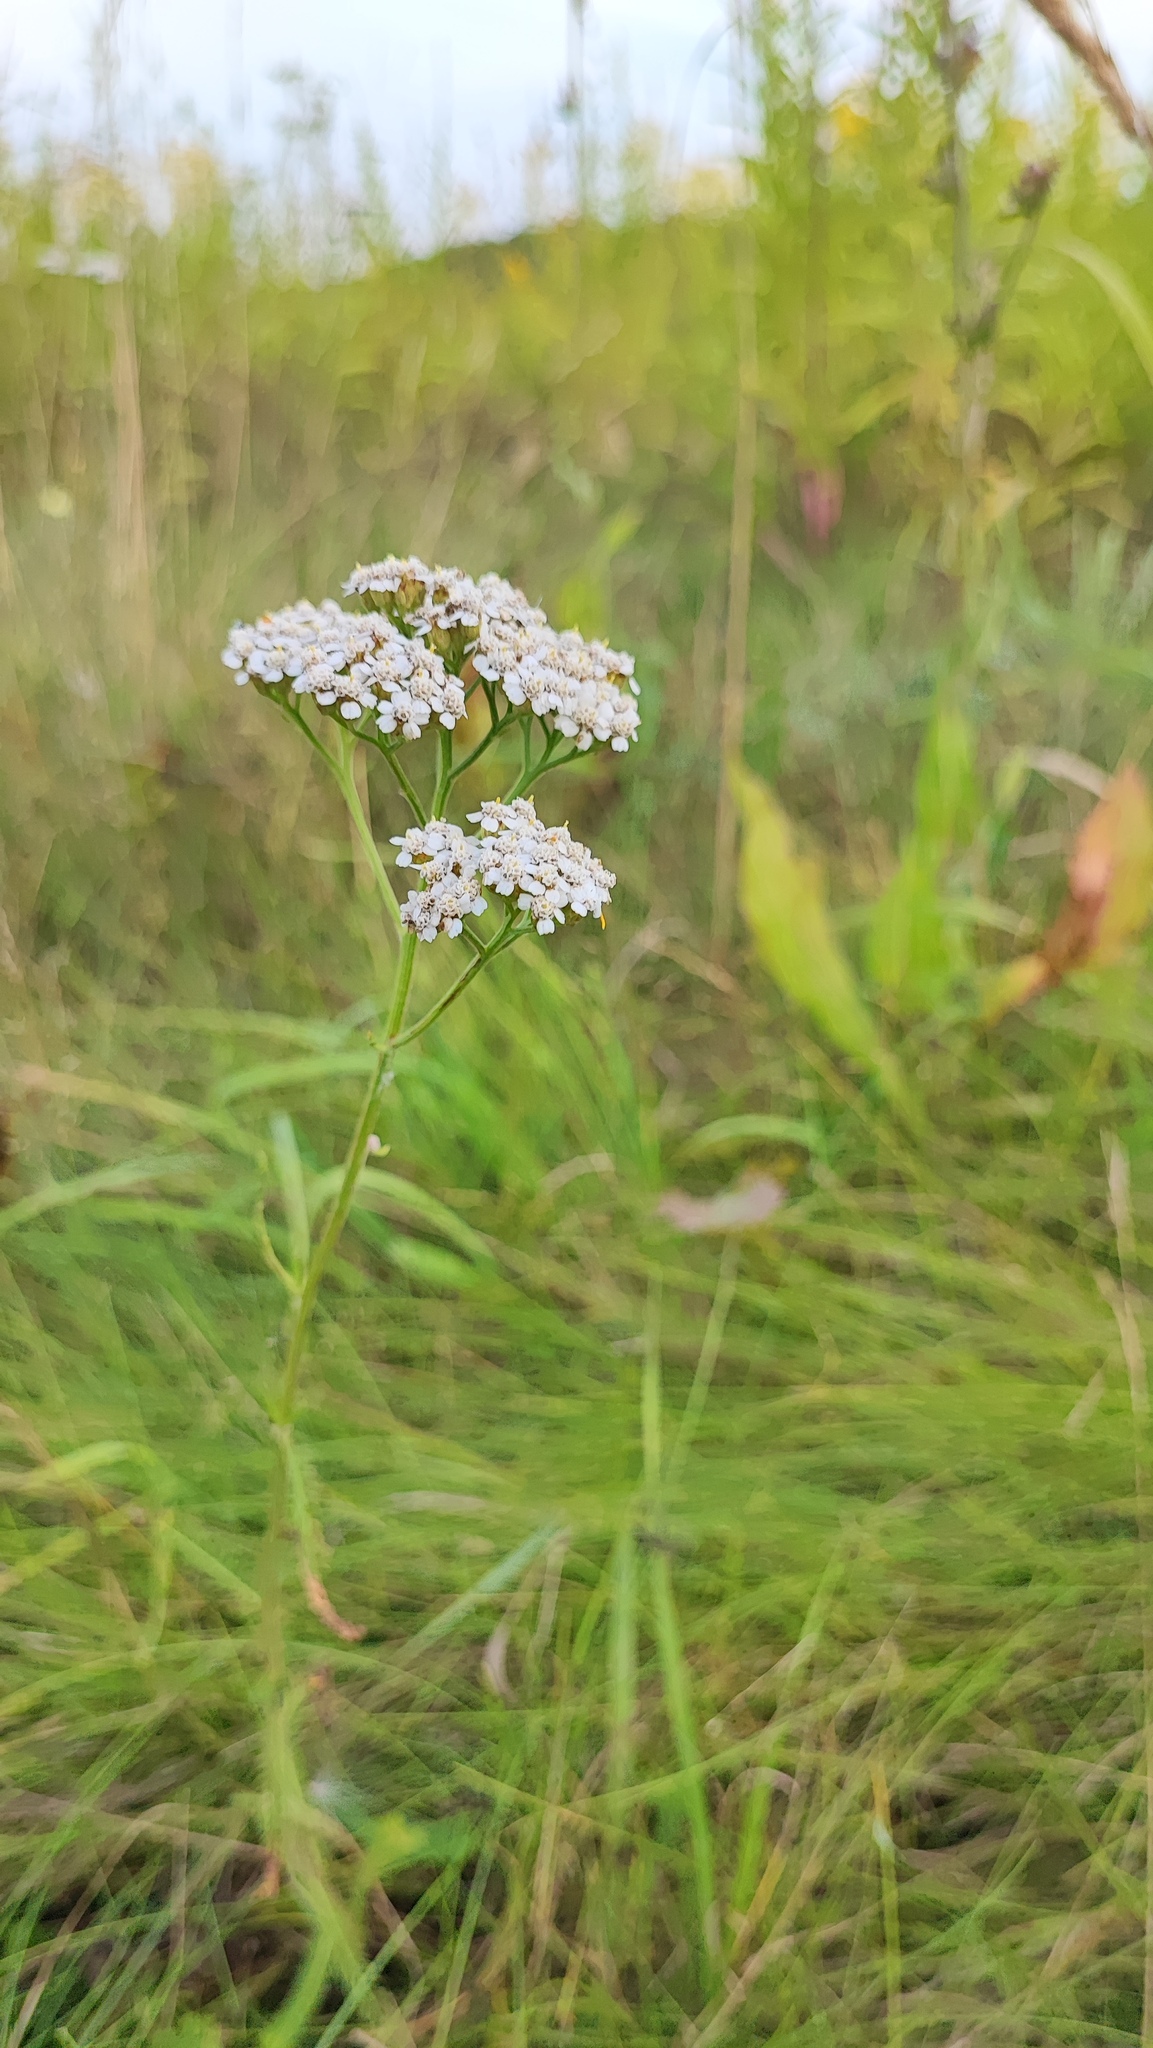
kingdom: Plantae
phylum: Tracheophyta
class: Magnoliopsida
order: Asterales
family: Asteraceae
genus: Achillea
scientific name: Achillea millefolium
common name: Yarrow
